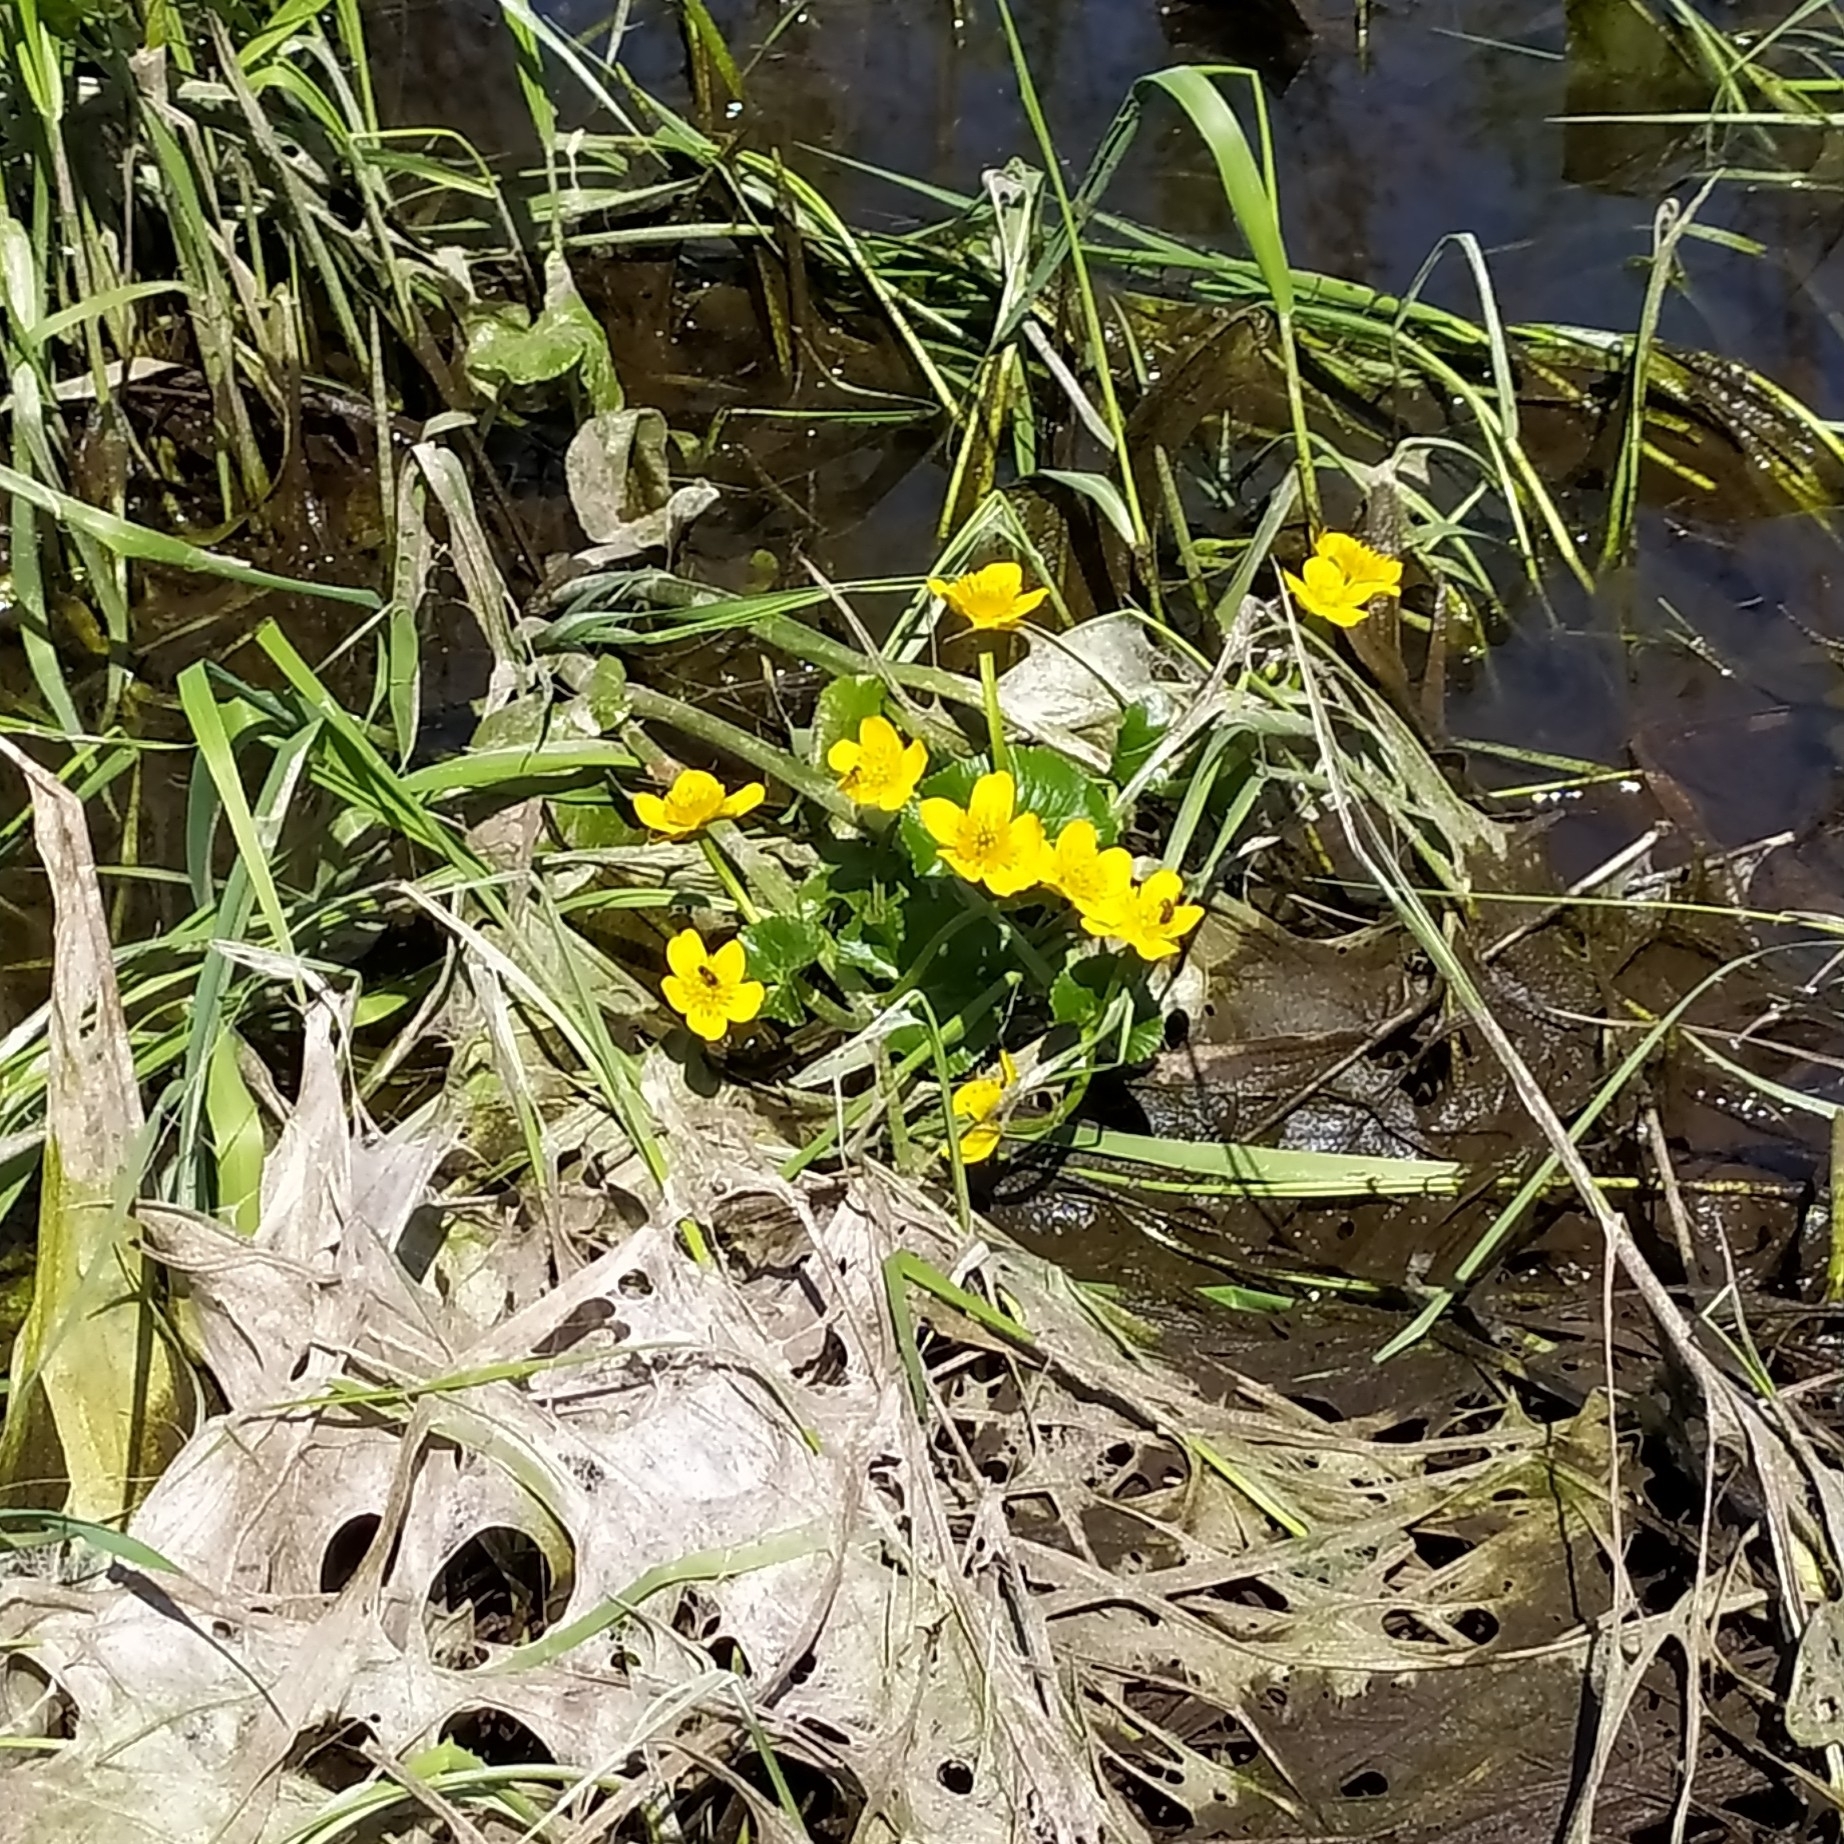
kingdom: Plantae
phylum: Tracheophyta
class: Magnoliopsida
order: Ranunculales
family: Ranunculaceae
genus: Caltha
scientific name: Caltha palustris
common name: Marsh marigold
